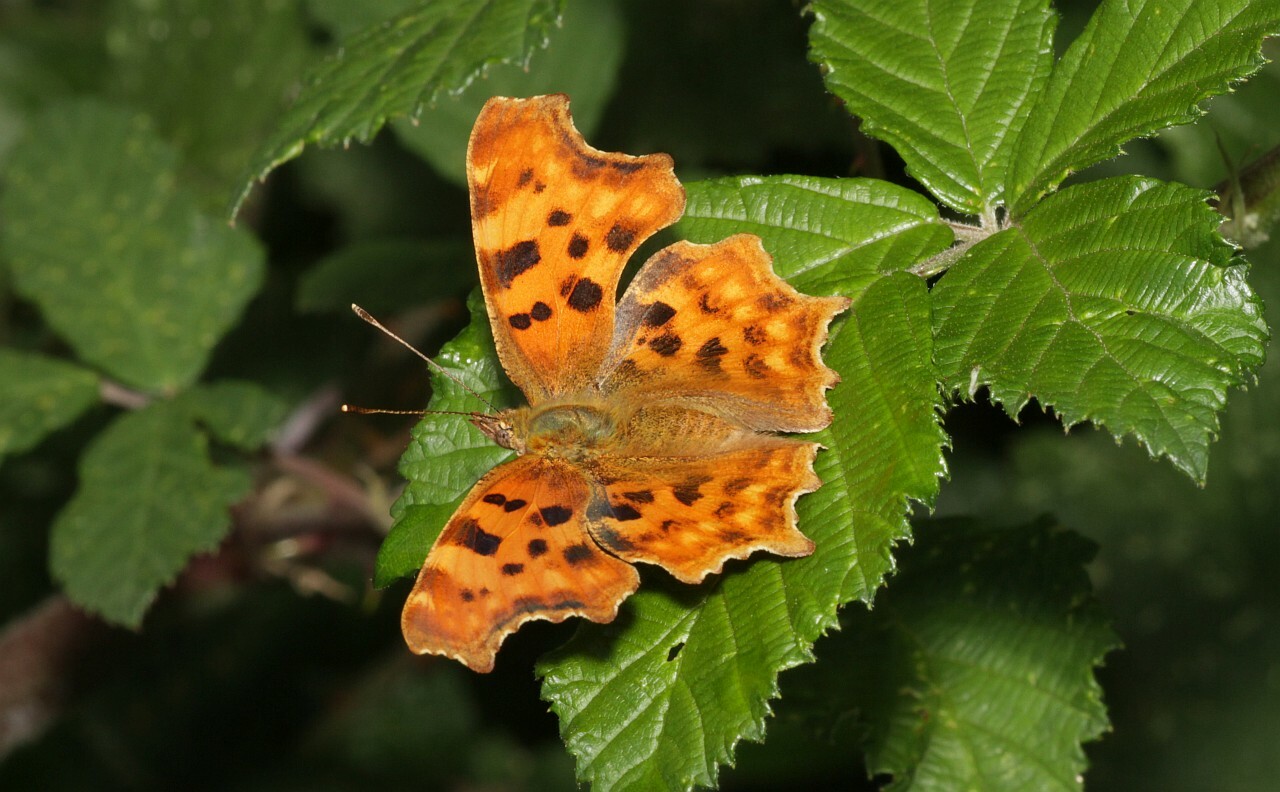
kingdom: Animalia
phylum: Arthropoda
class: Insecta
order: Lepidoptera
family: Nymphalidae
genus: Polygonia
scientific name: Polygonia c-album
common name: Comma
